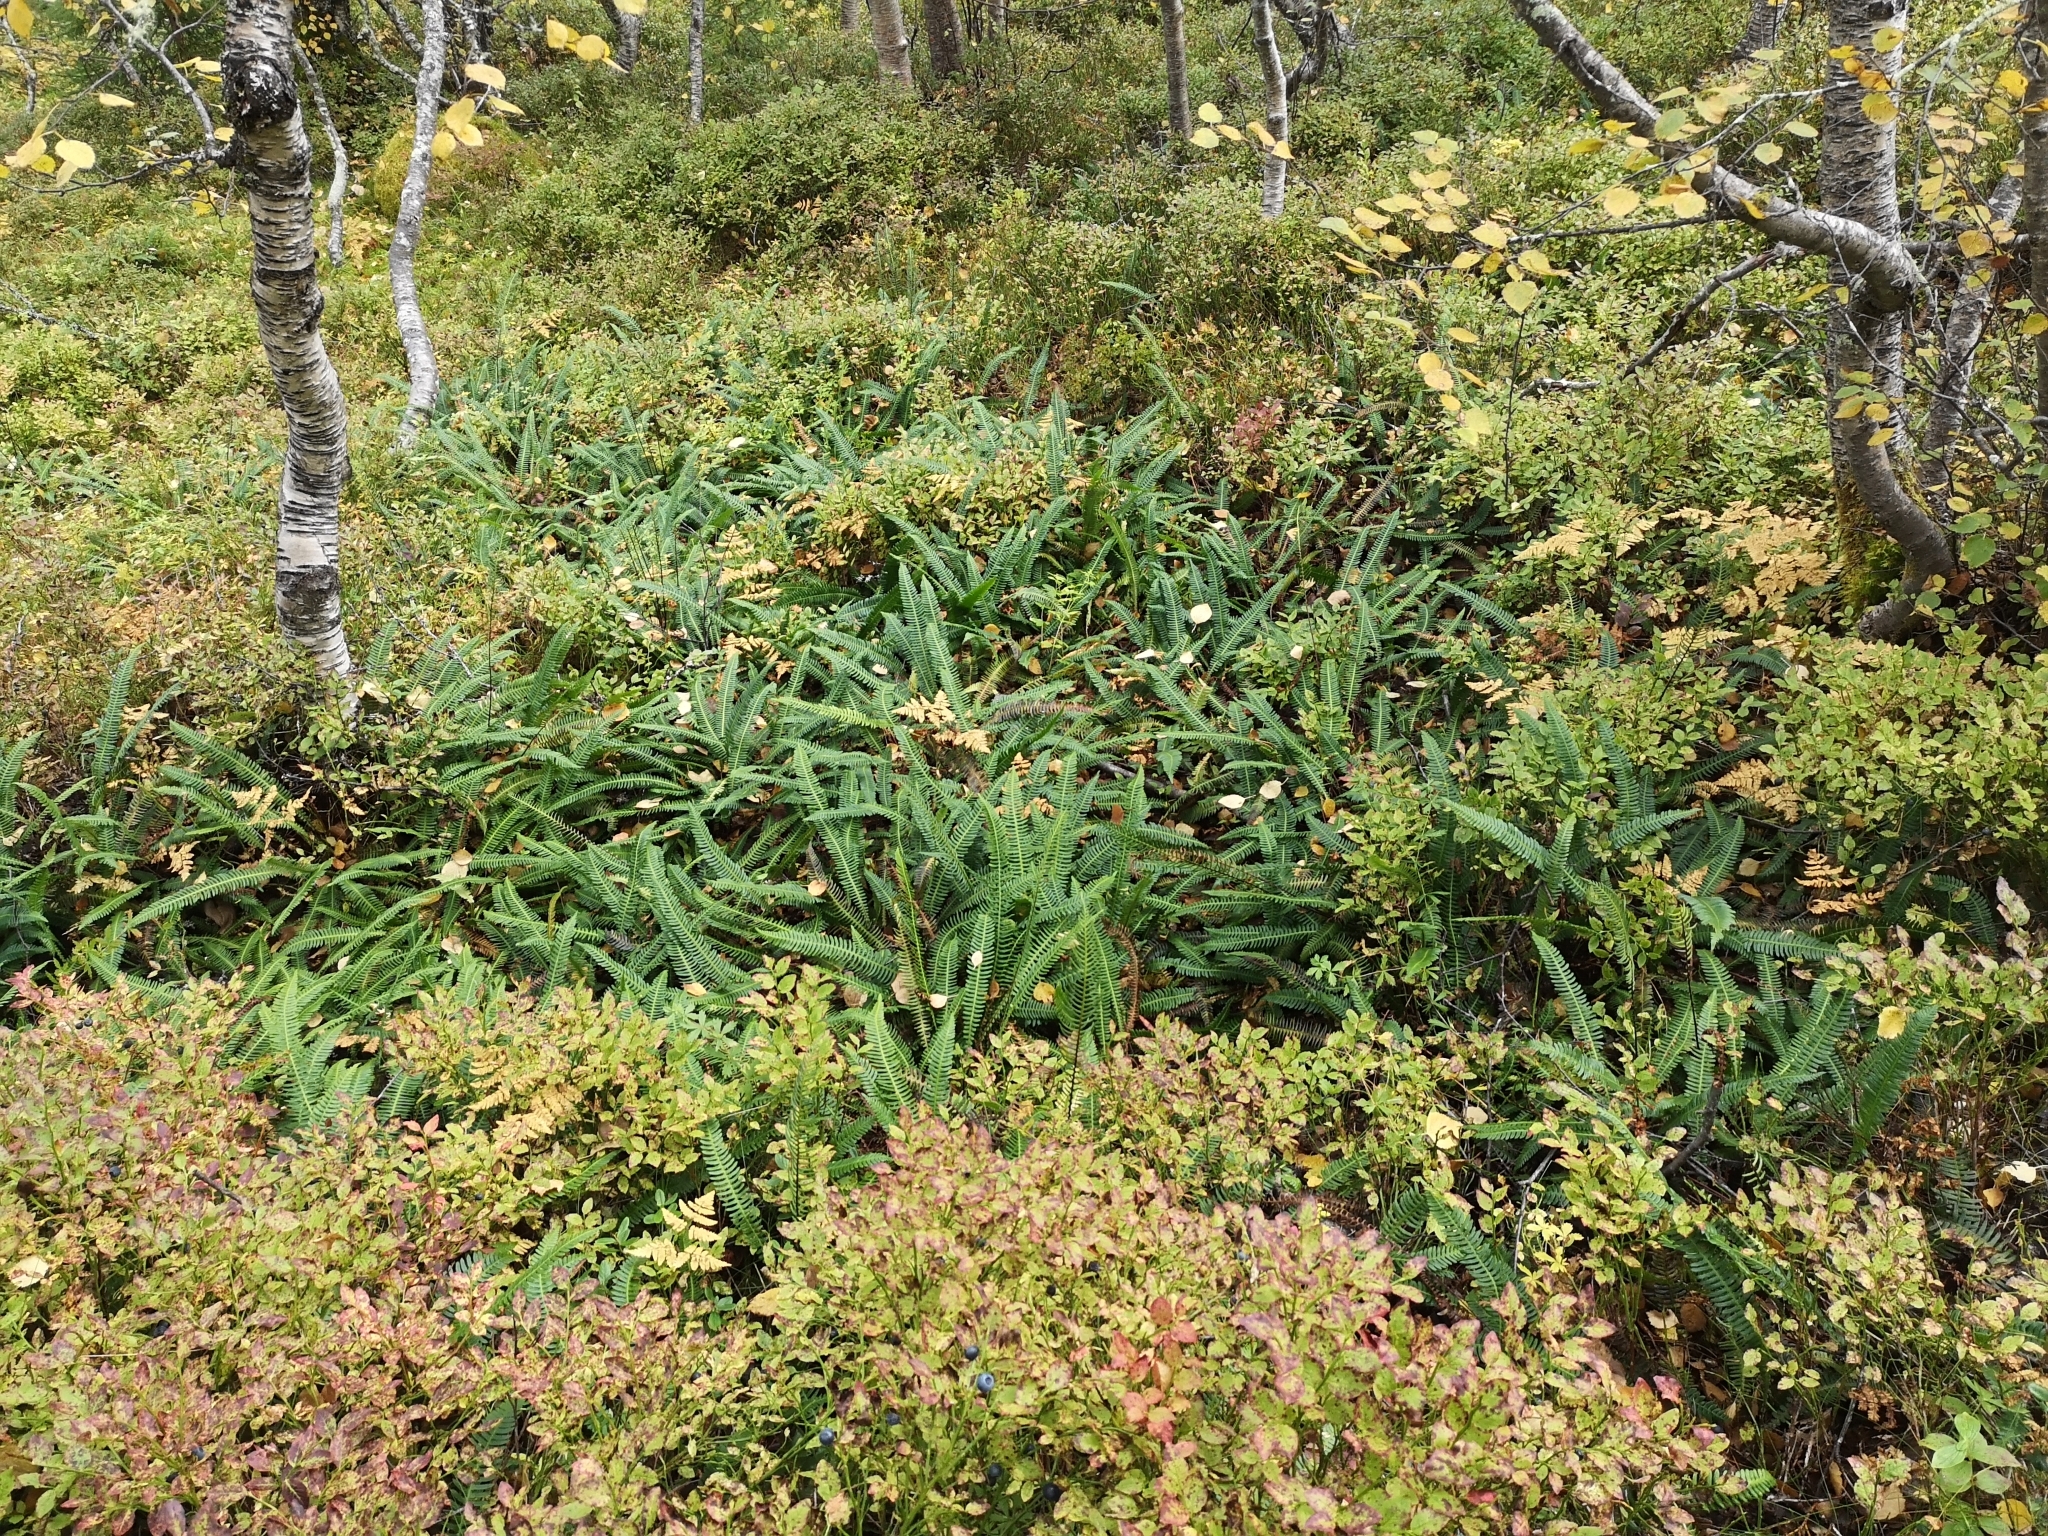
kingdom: Plantae
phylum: Tracheophyta
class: Polypodiopsida
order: Polypodiales
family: Blechnaceae
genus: Struthiopteris
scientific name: Struthiopteris spicant
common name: Deer fern
